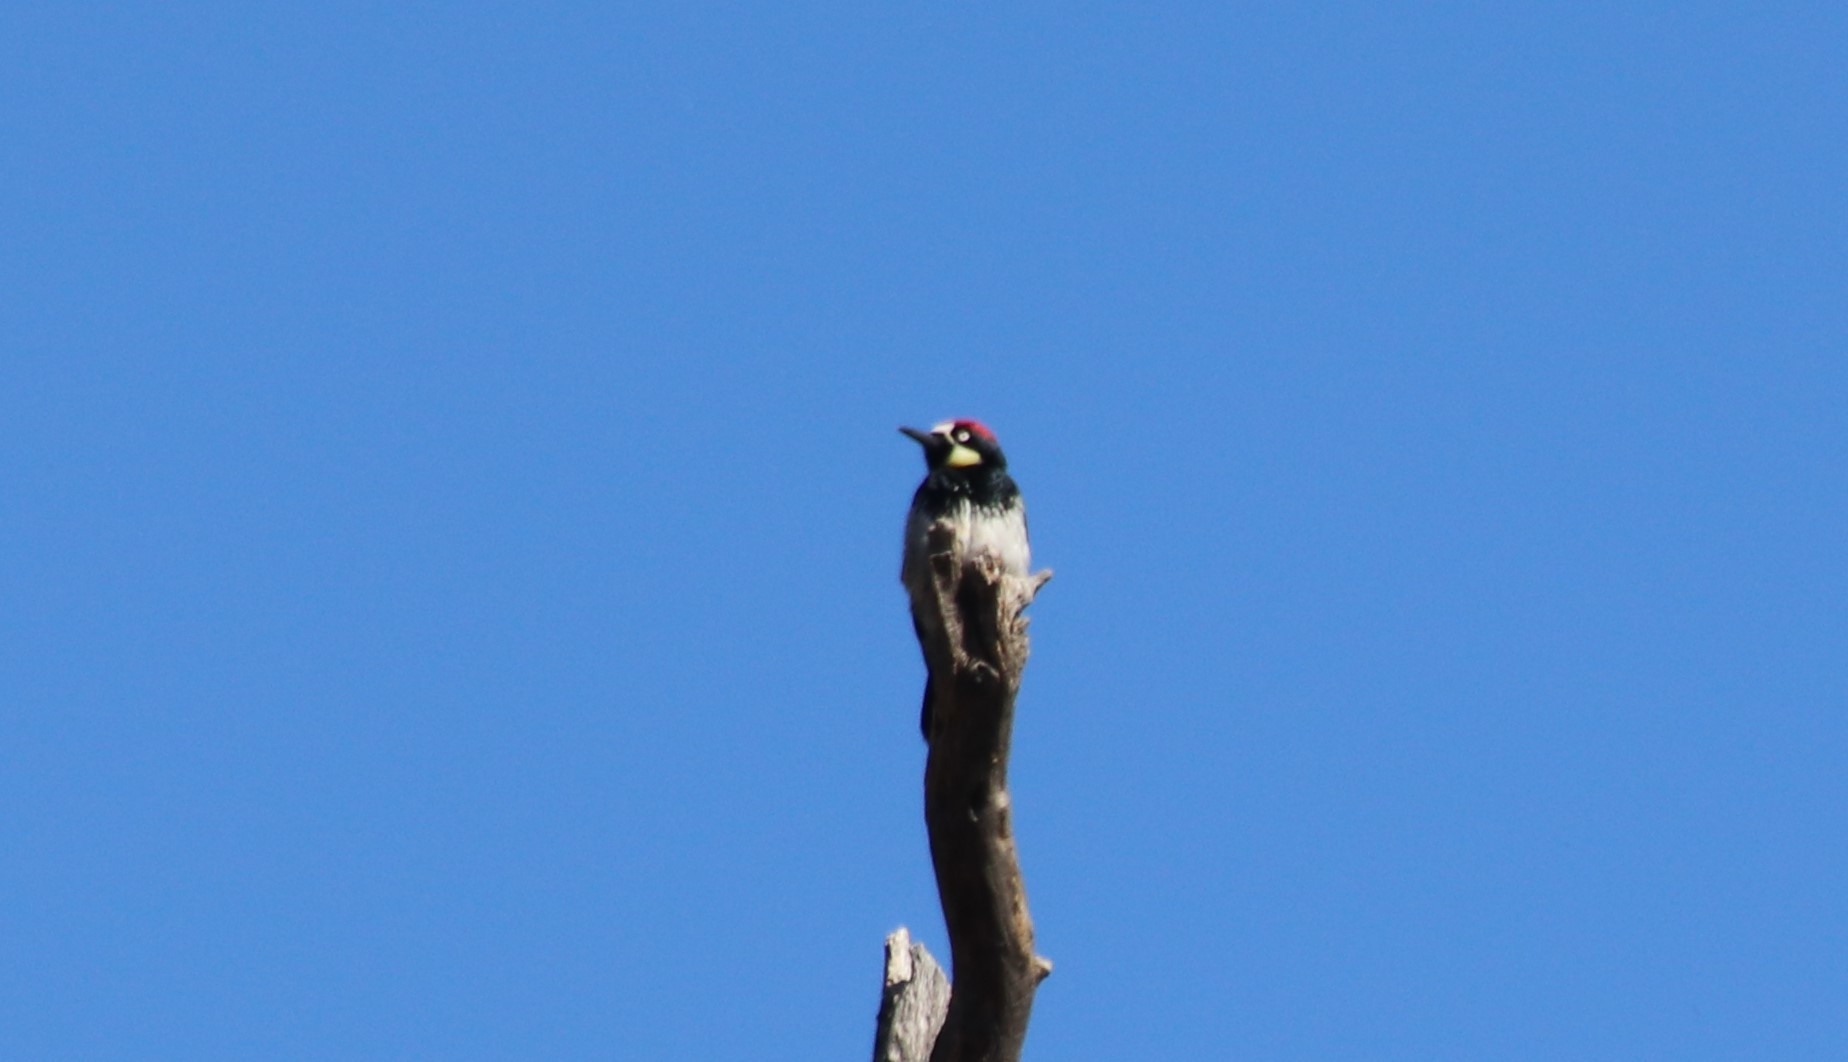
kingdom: Animalia
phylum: Chordata
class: Aves
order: Piciformes
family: Picidae
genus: Melanerpes
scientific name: Melanerpes formicivorus
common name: Acorn woodpecker
